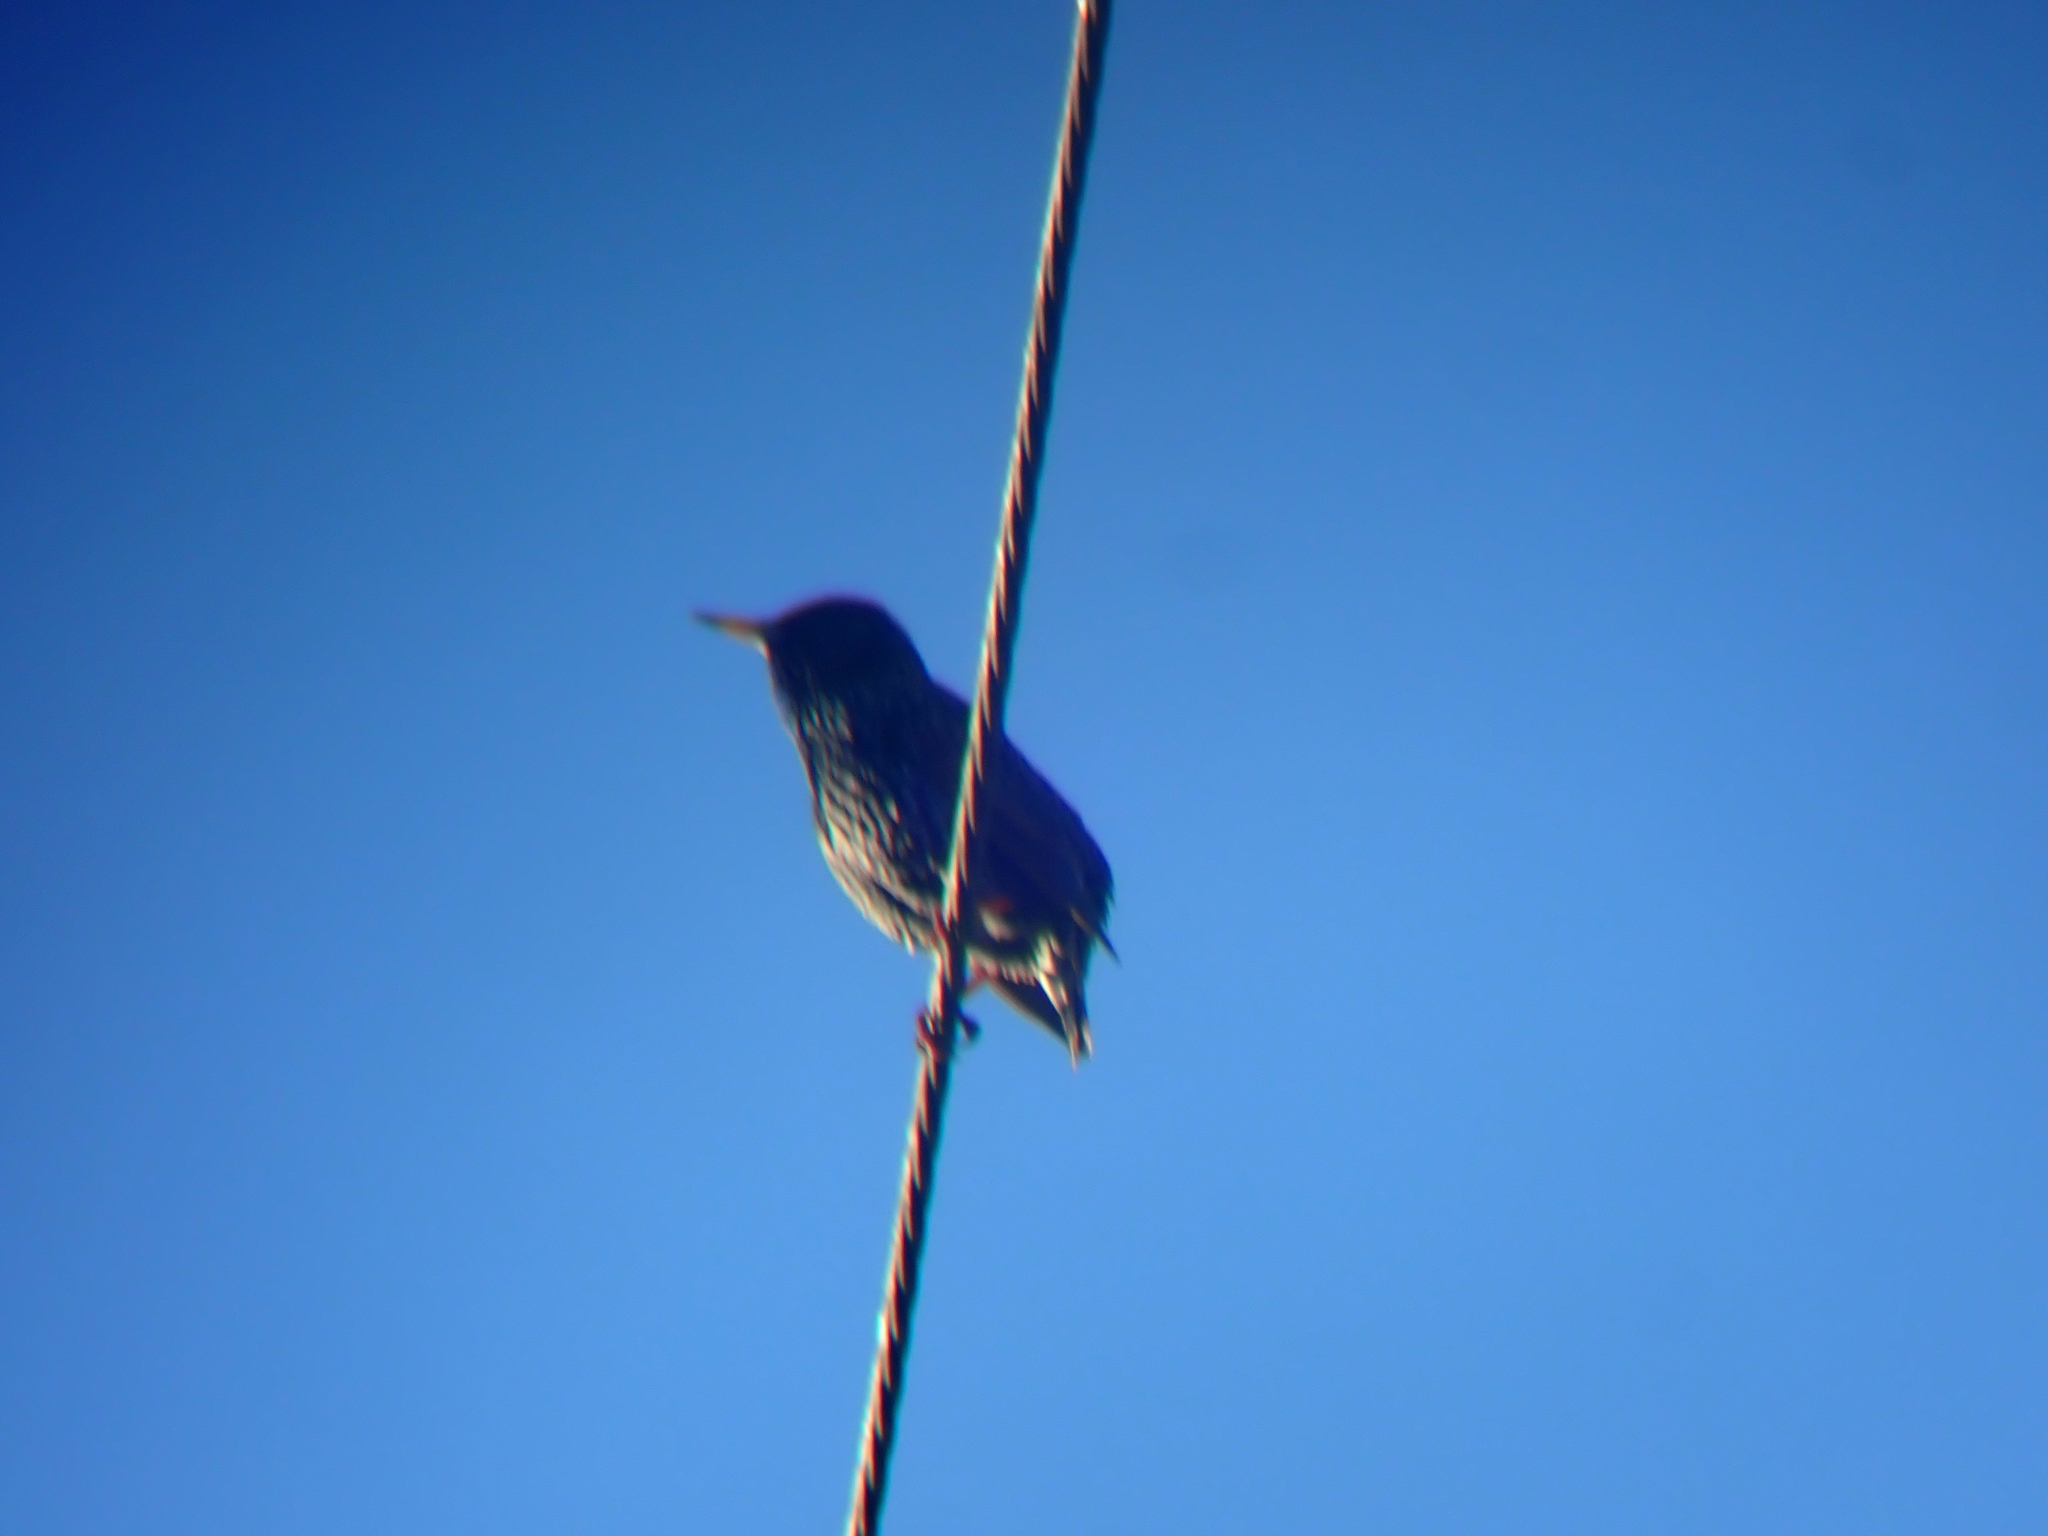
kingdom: Animalia
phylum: Chordata
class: Aves
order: Passeriformes
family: Sturnidae
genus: Sturnus
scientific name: Sturnus vulgaris
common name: Common starling
